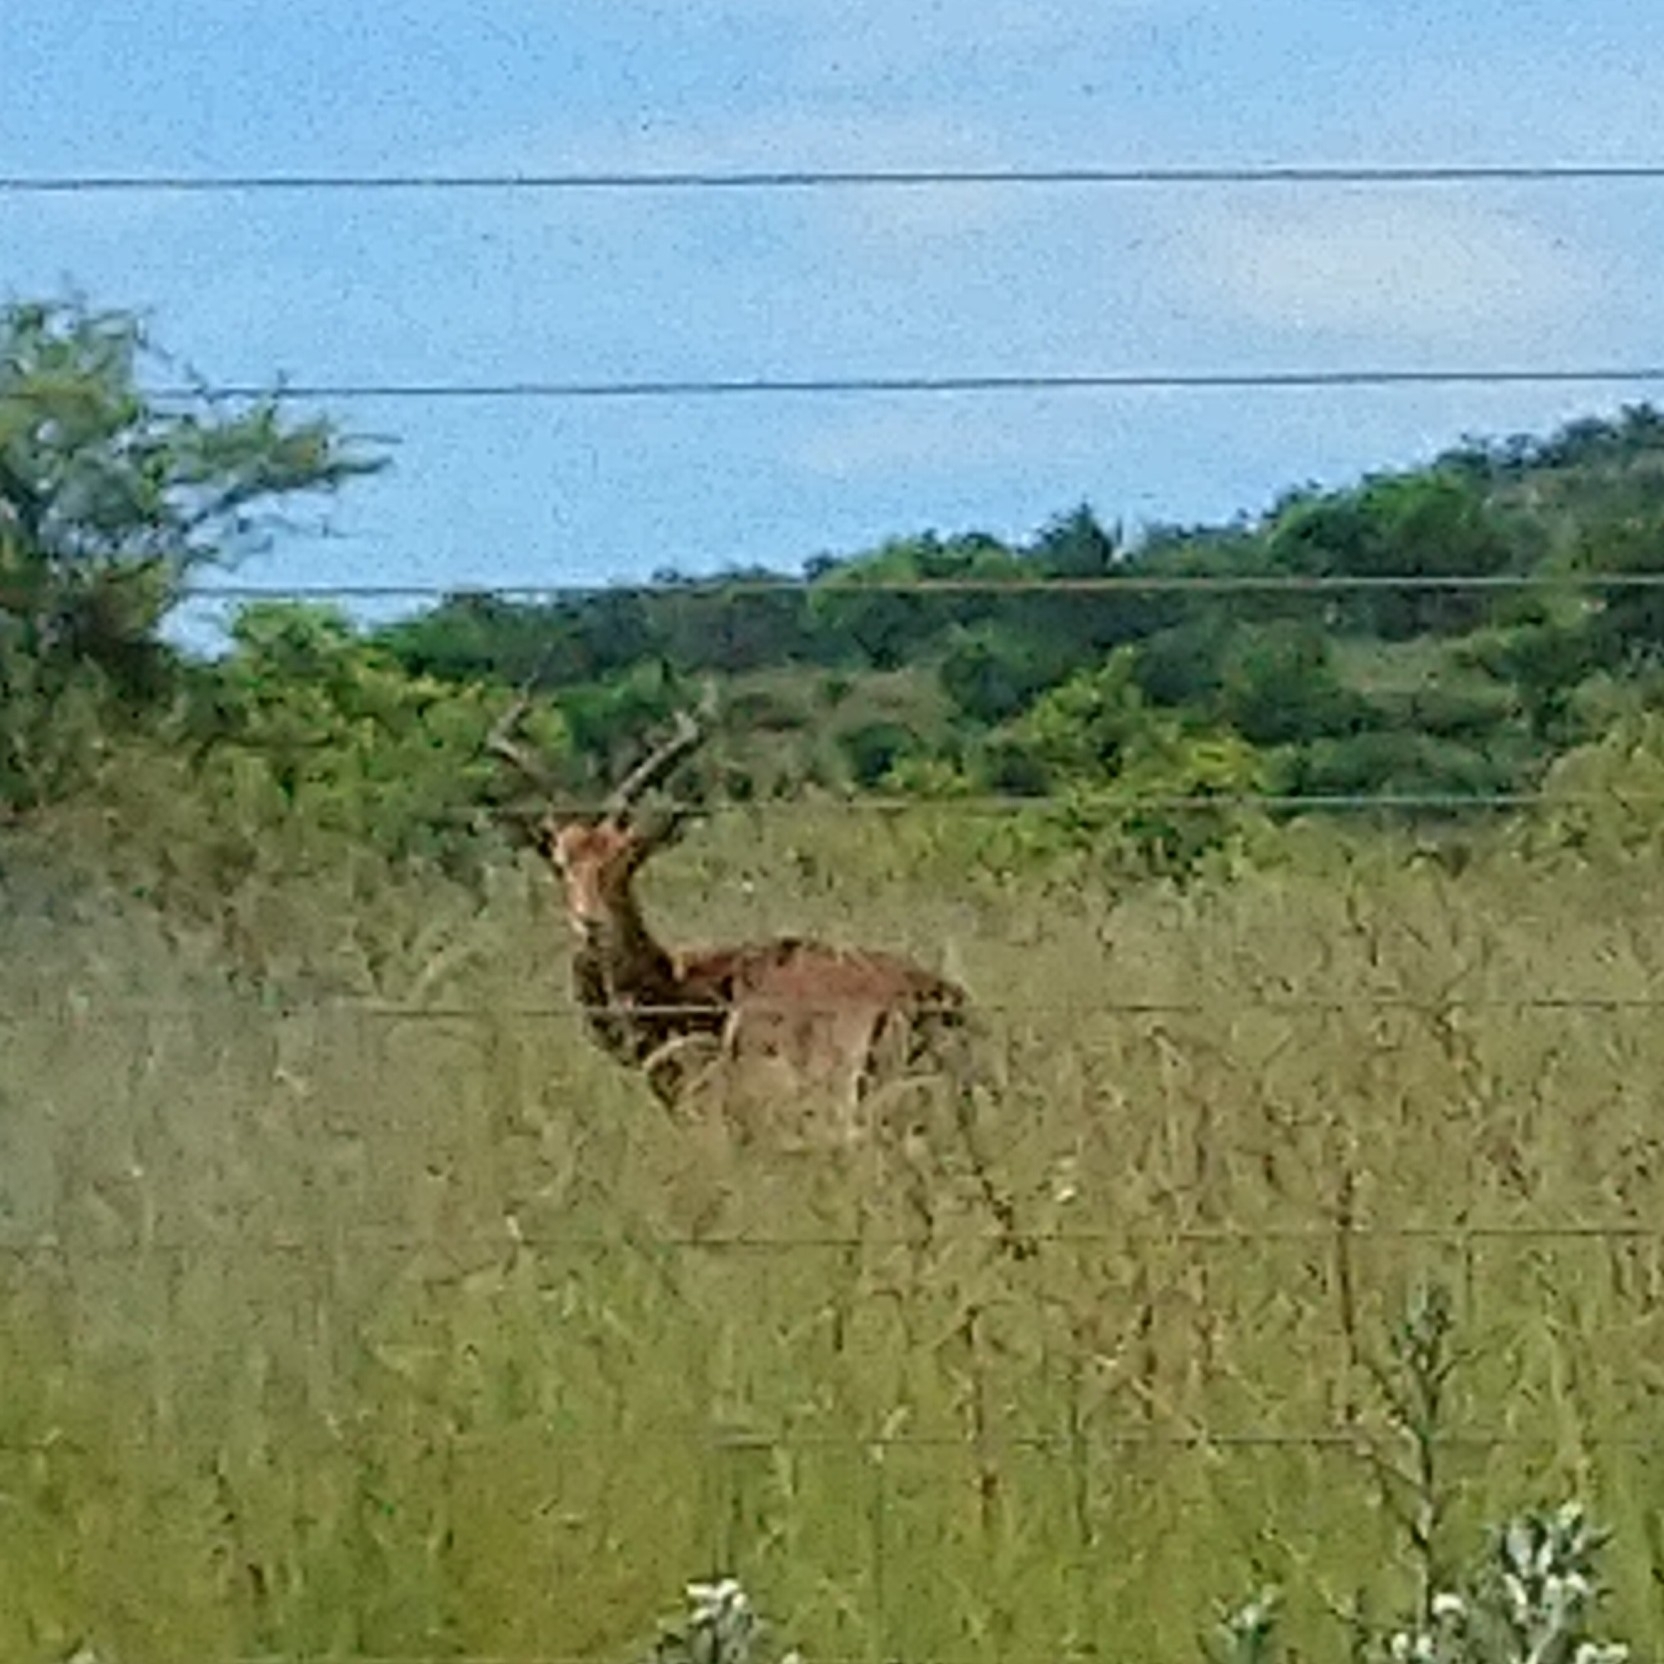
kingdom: Animalia
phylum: Chordata
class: Mammalia
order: Artiodactyla
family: Bovidae
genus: Aepyceros
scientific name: Aepyceros melampus
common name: Impala
